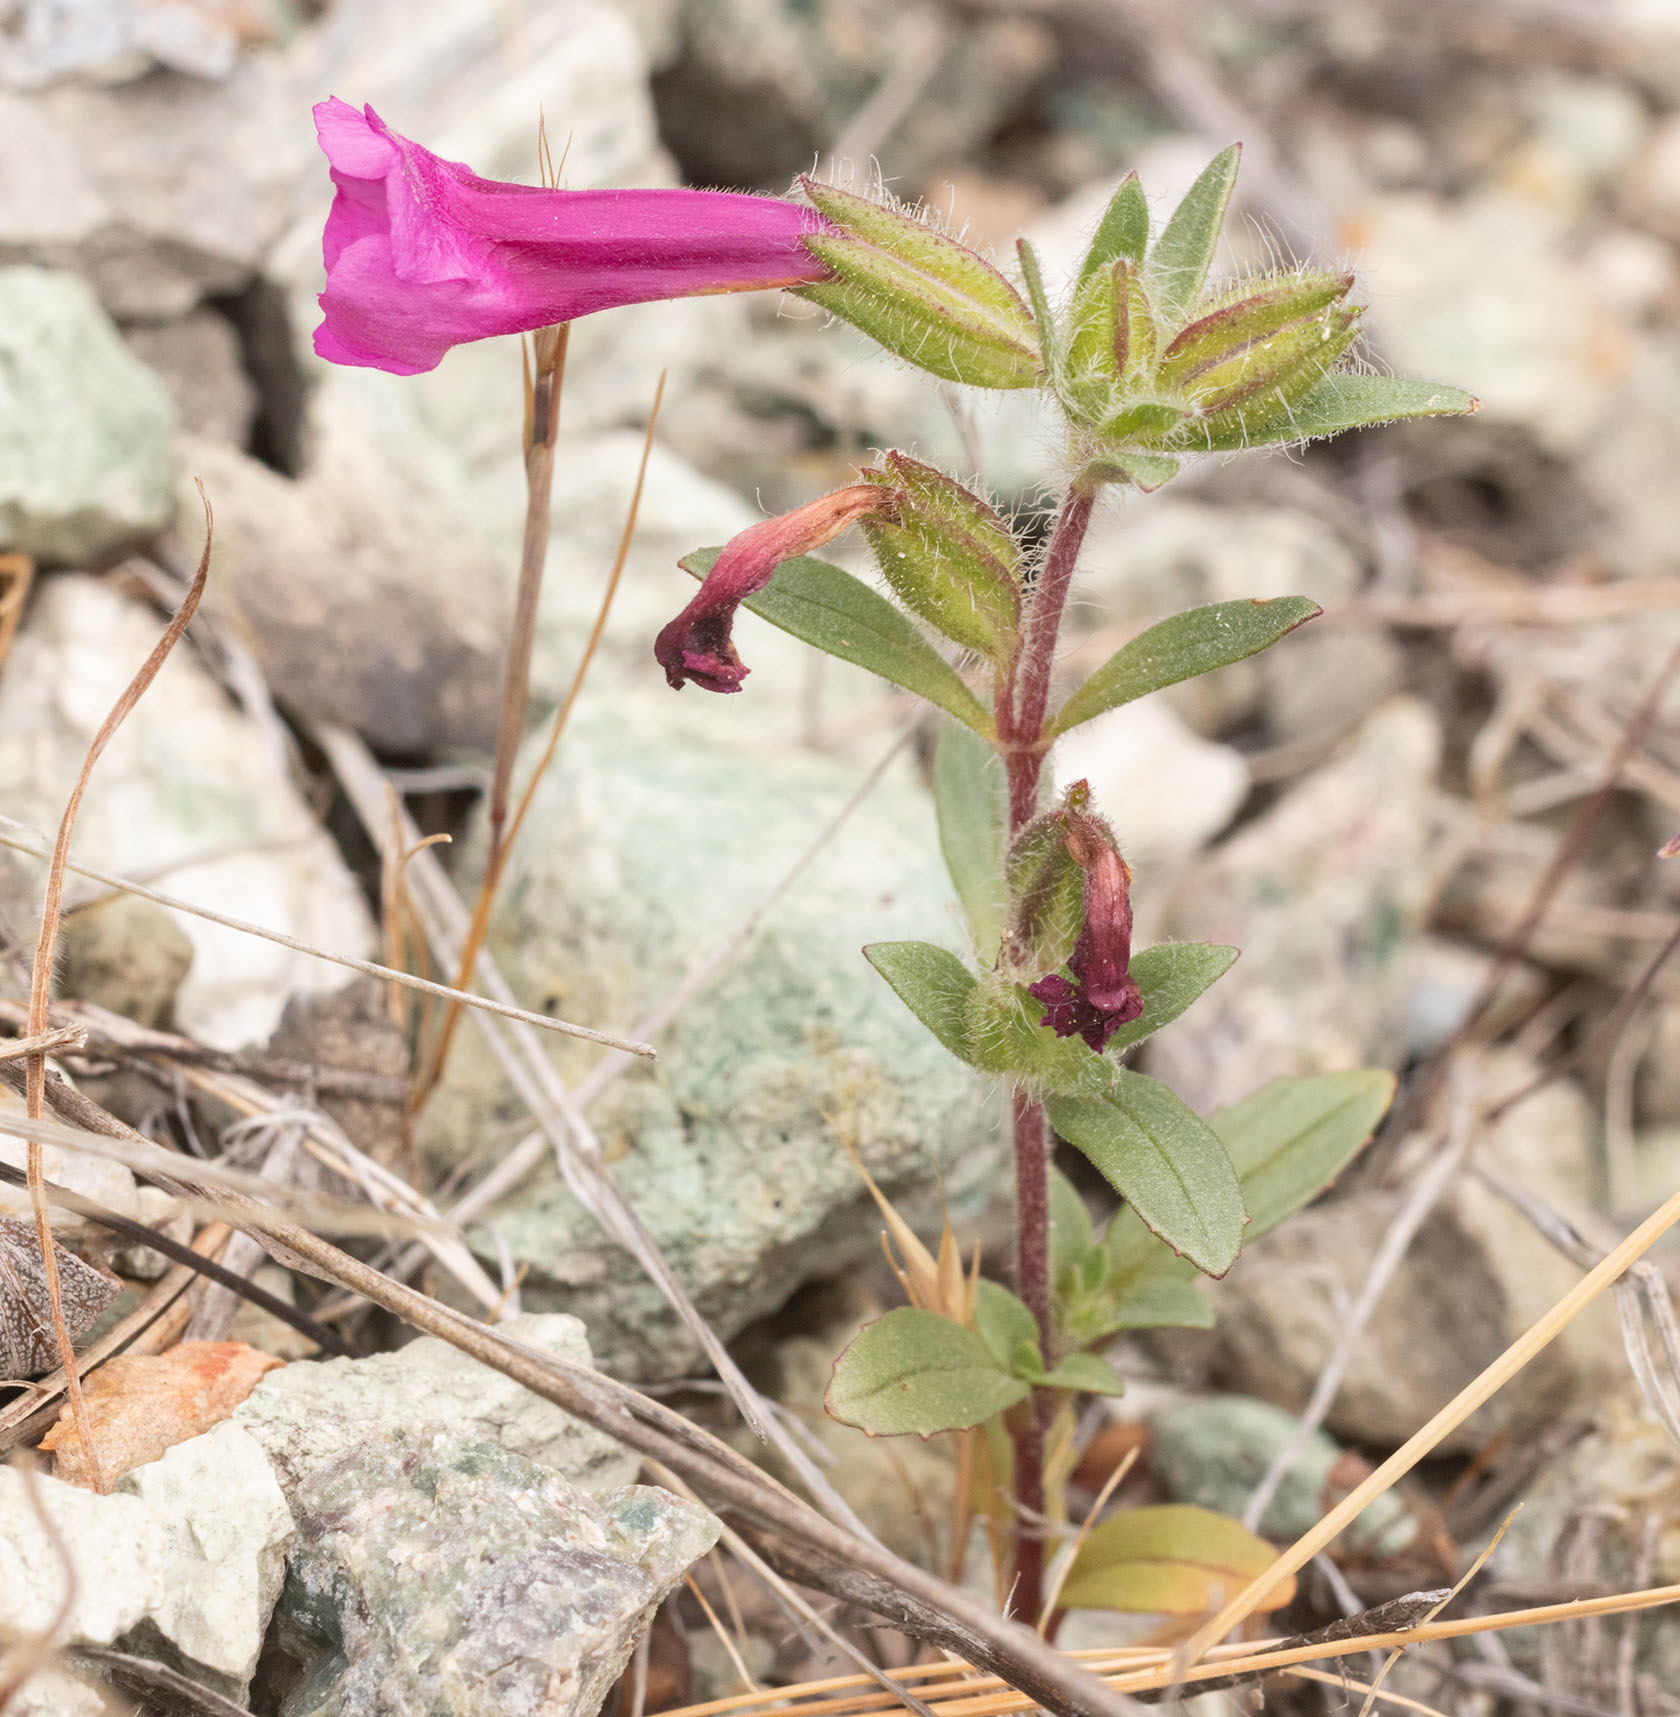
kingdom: Plantae
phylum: Tracheophyta
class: Magnoliopsida
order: Lamiales
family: Phrymaceae
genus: Diplacus
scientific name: Diplacus fremontii
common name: Fremont's monkey-flower
